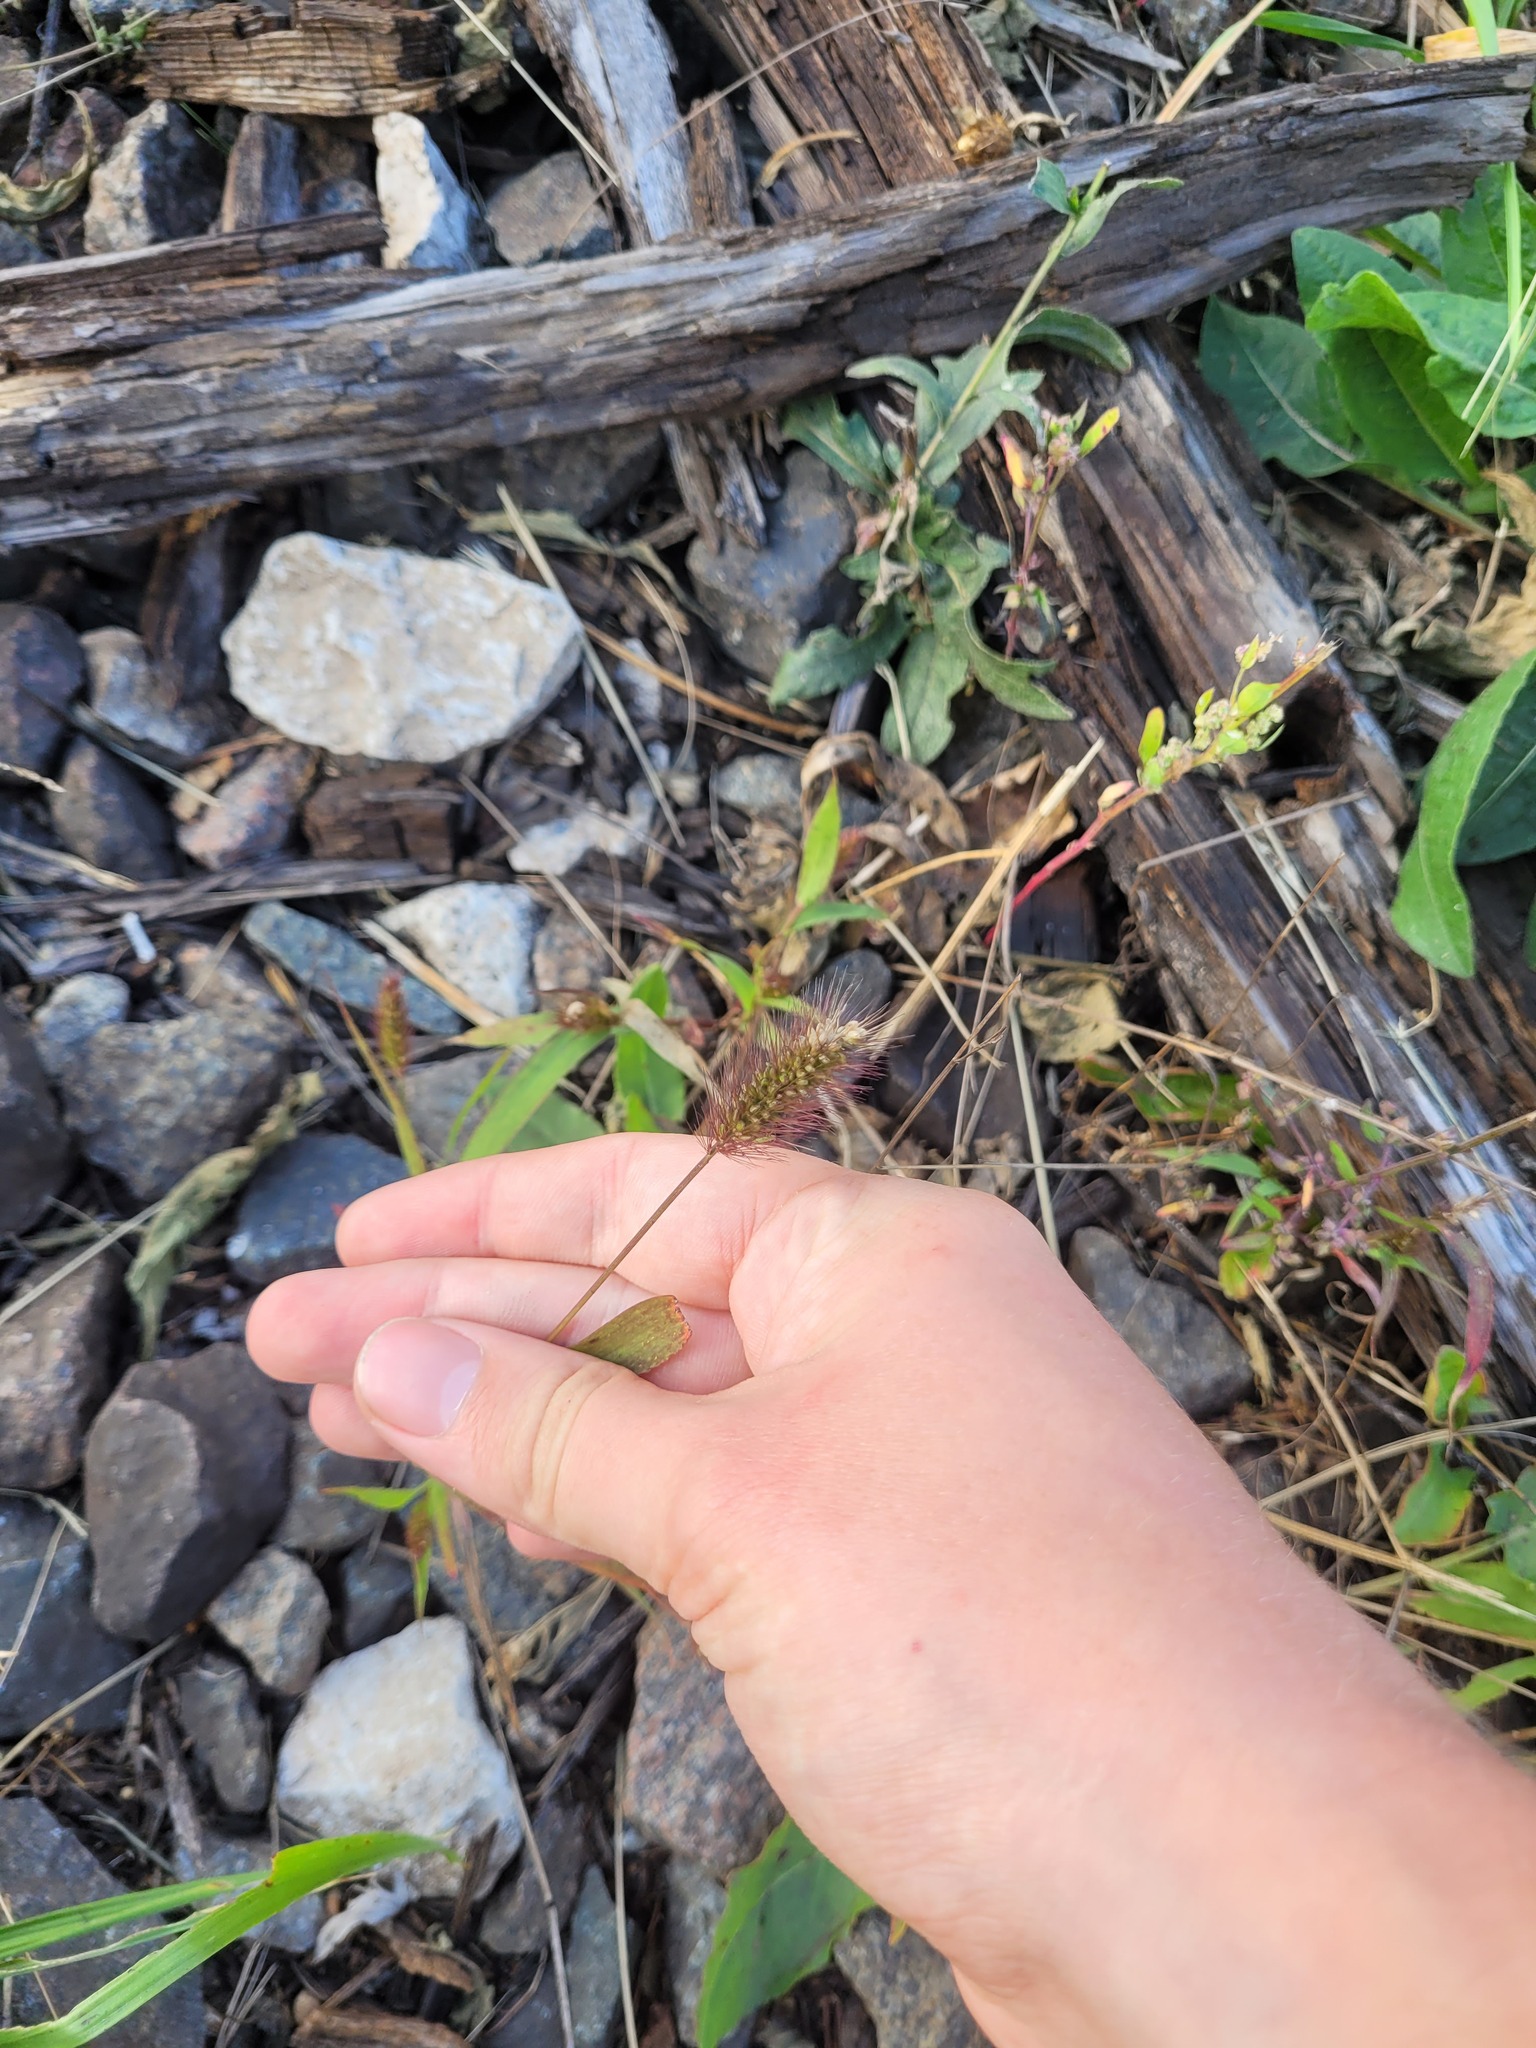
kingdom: Plantae
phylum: Tracheophyta
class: Liliopsida
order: Poales
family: Poaceae
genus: Setaria
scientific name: Setaria viridis
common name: Green bristlegrass
